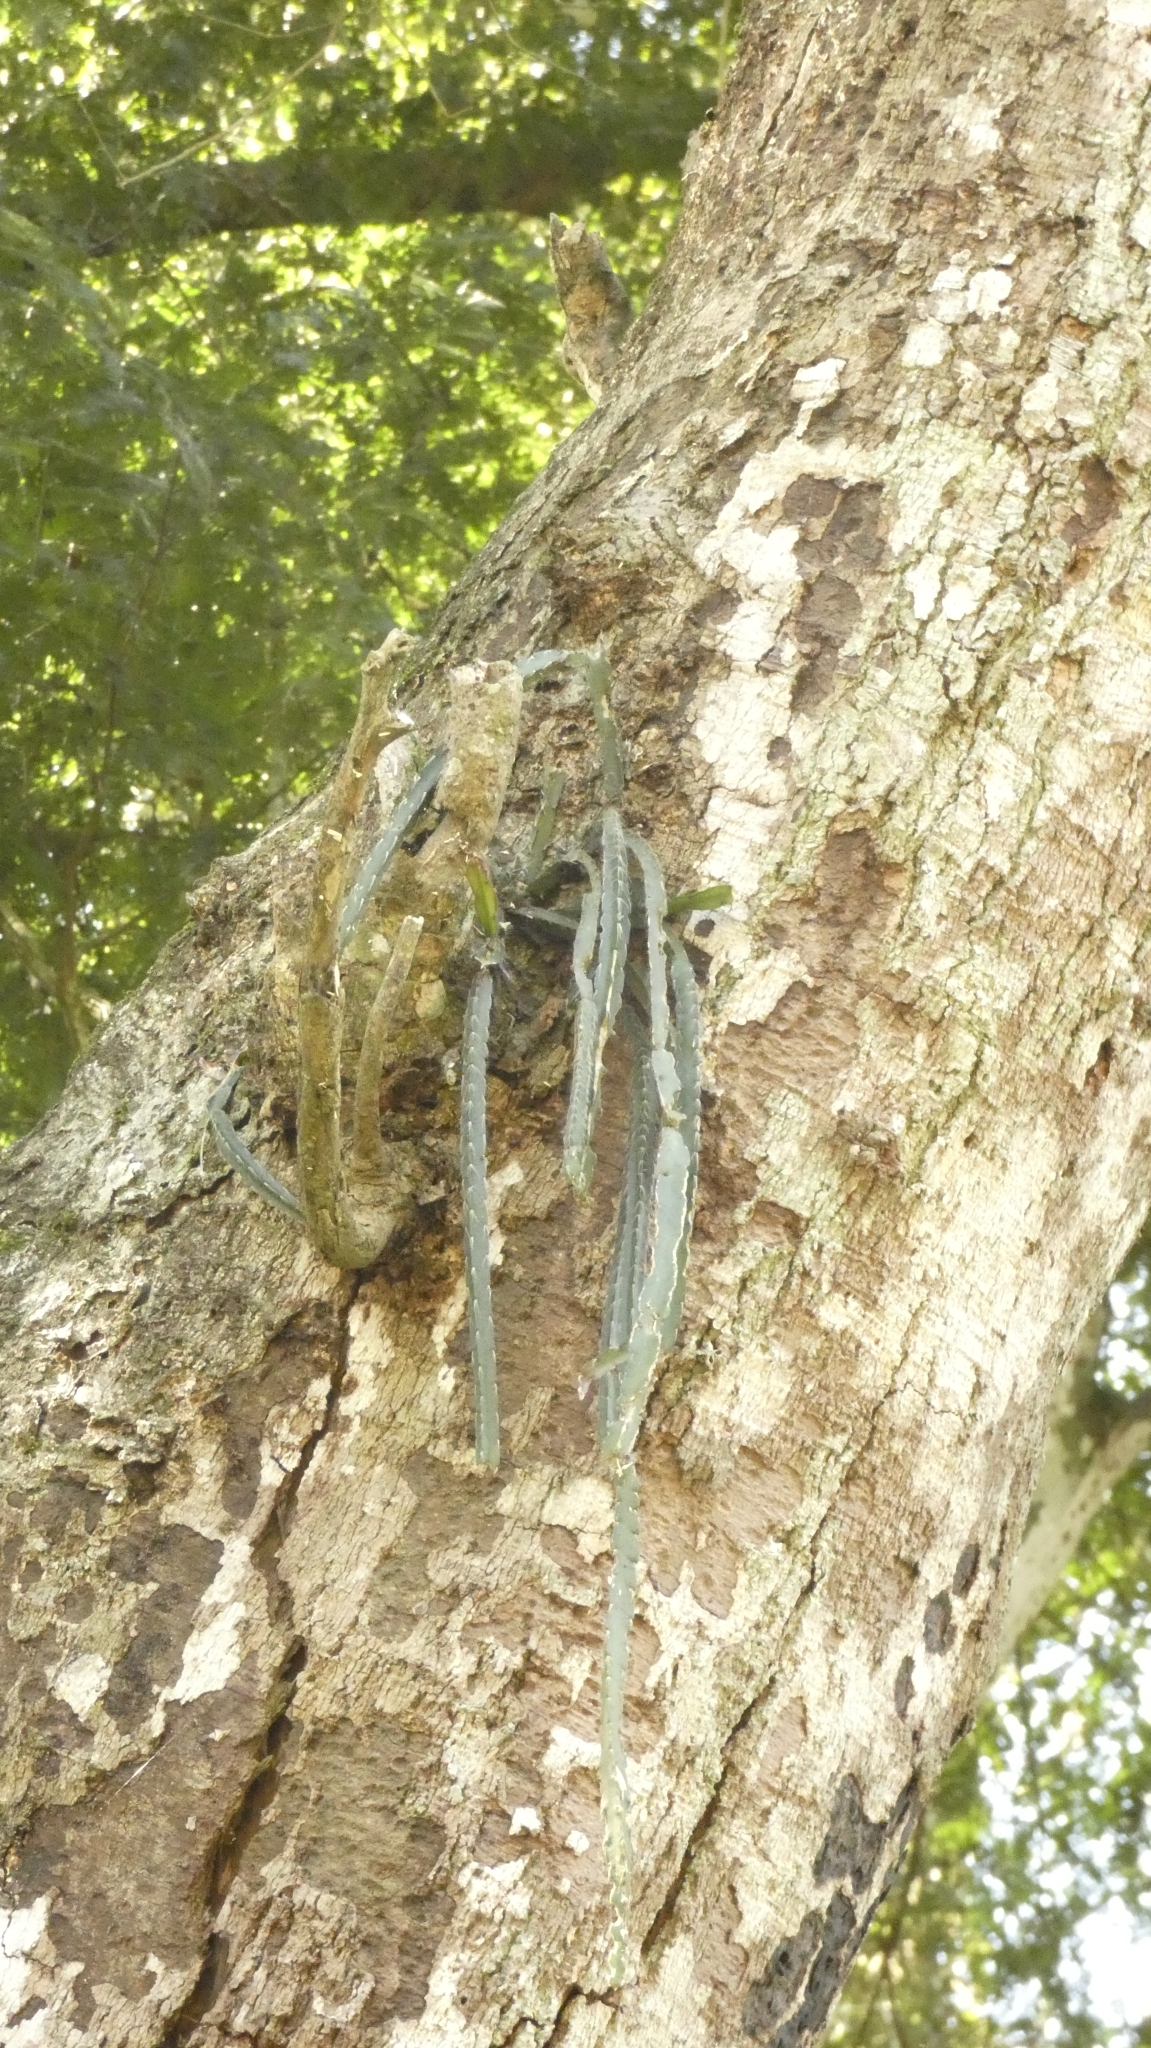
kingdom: Plantae
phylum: Tracheophyta
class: Magnoliopsida
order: Caryophyllales
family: Cactaceae
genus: Lepismium
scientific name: Lepismium cruciforme
